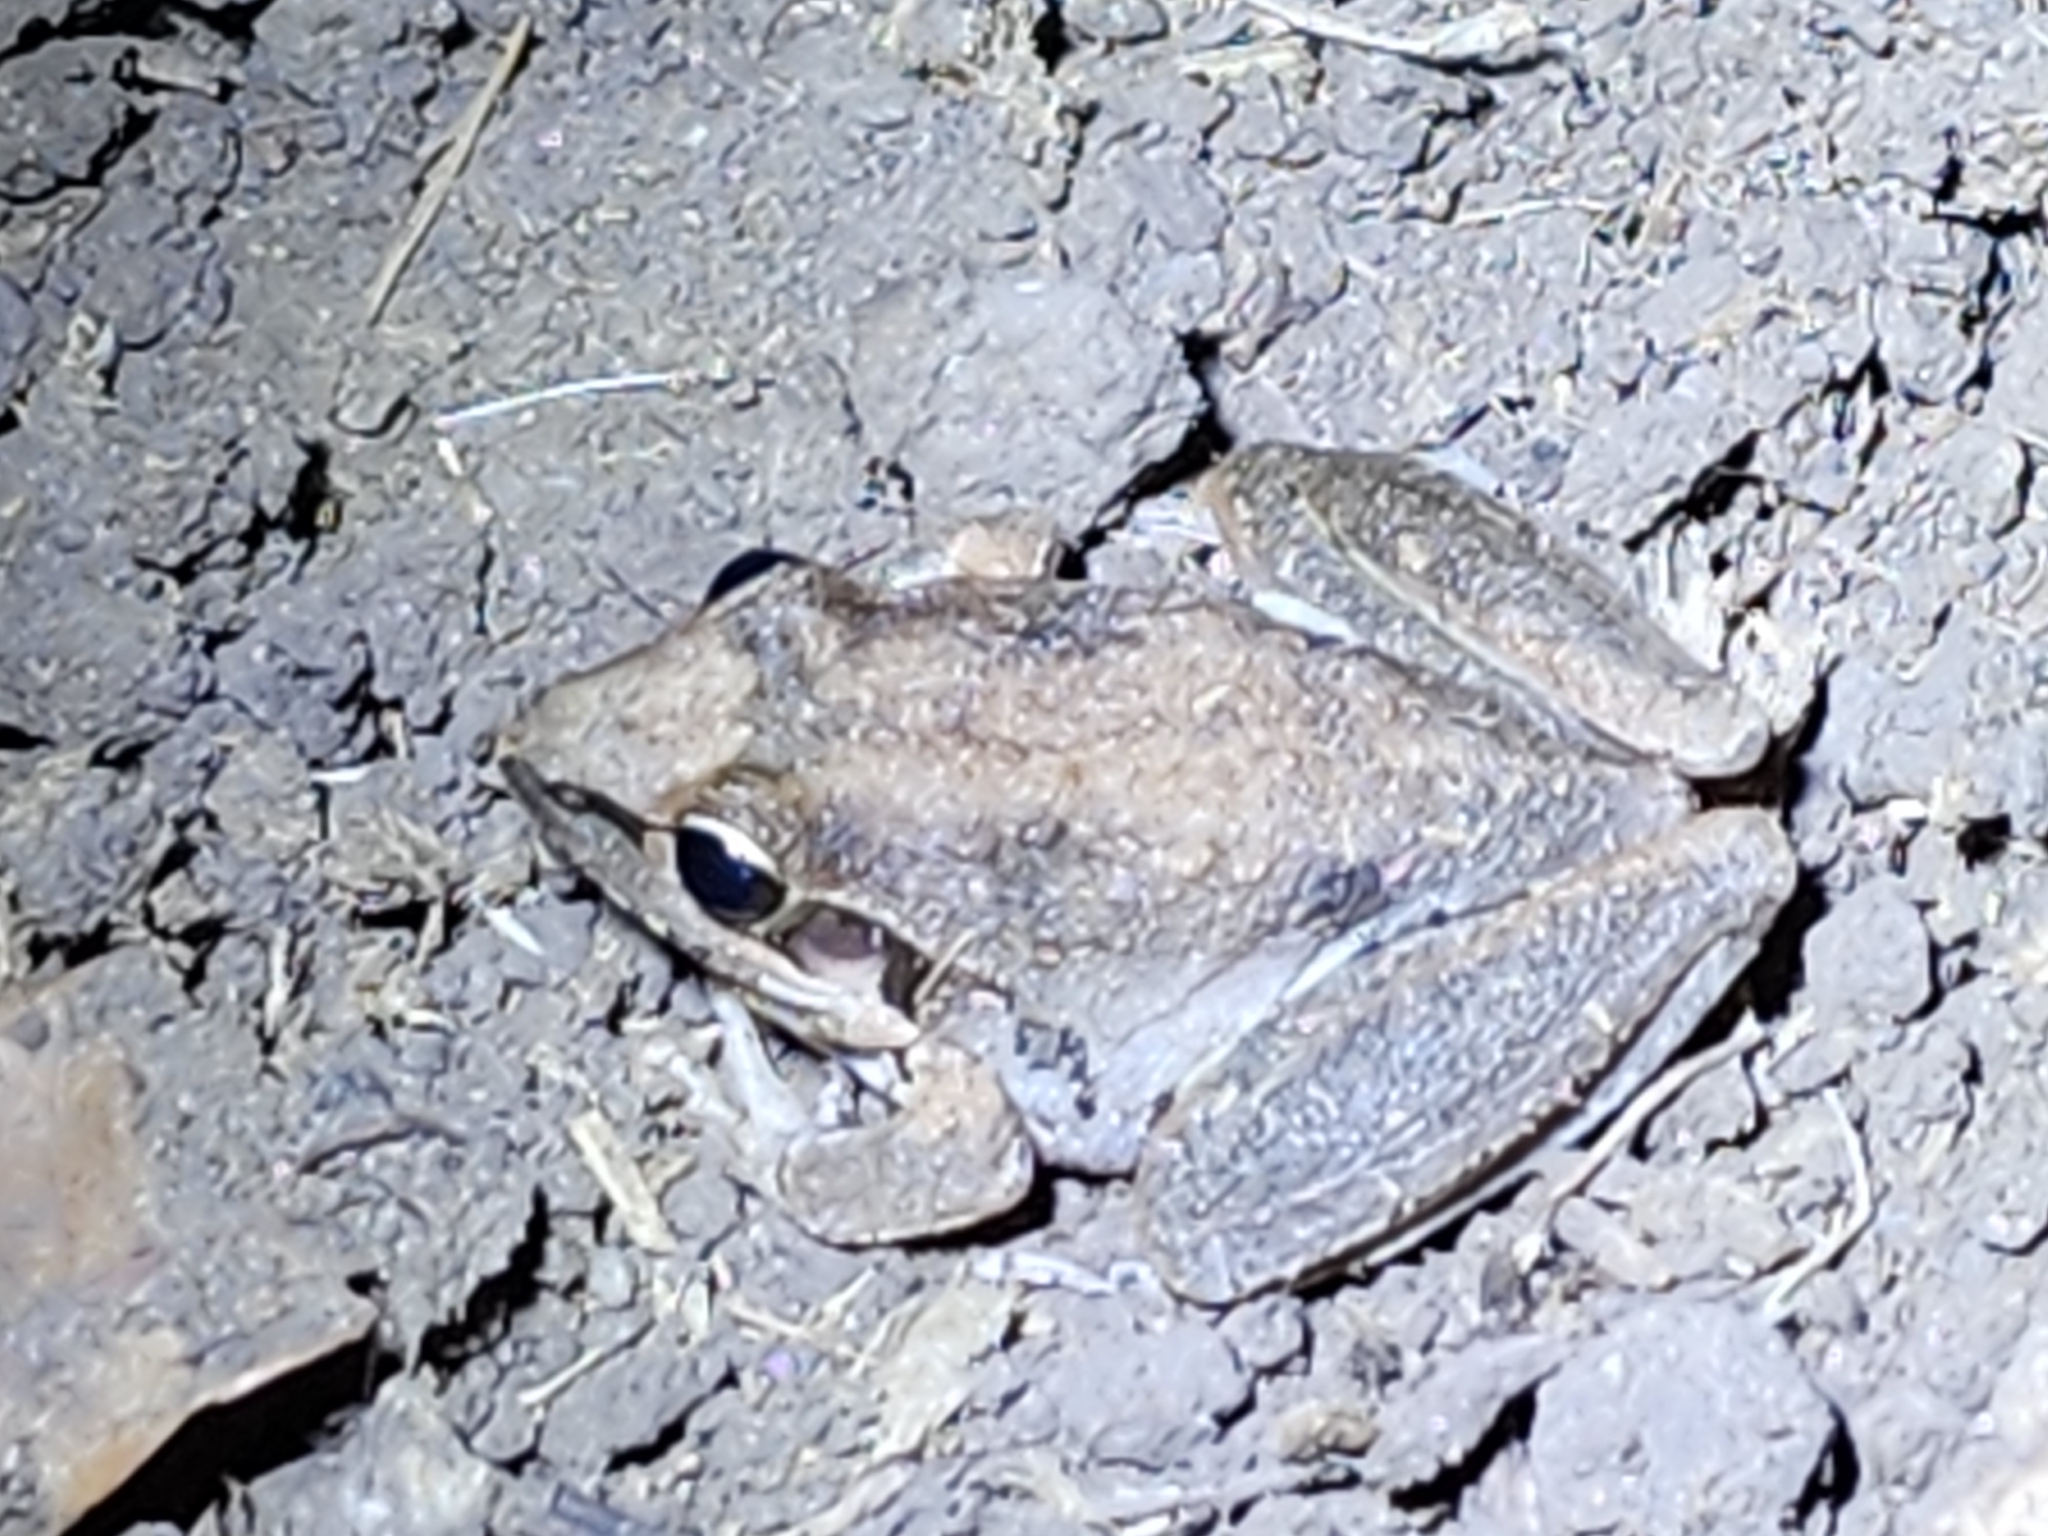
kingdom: Animalia
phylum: Chordata
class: Amphibia
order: Anura
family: Pelodryadidae
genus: Litoria
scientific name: Litoria latopalmata
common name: Broad-palmed rocket frog
